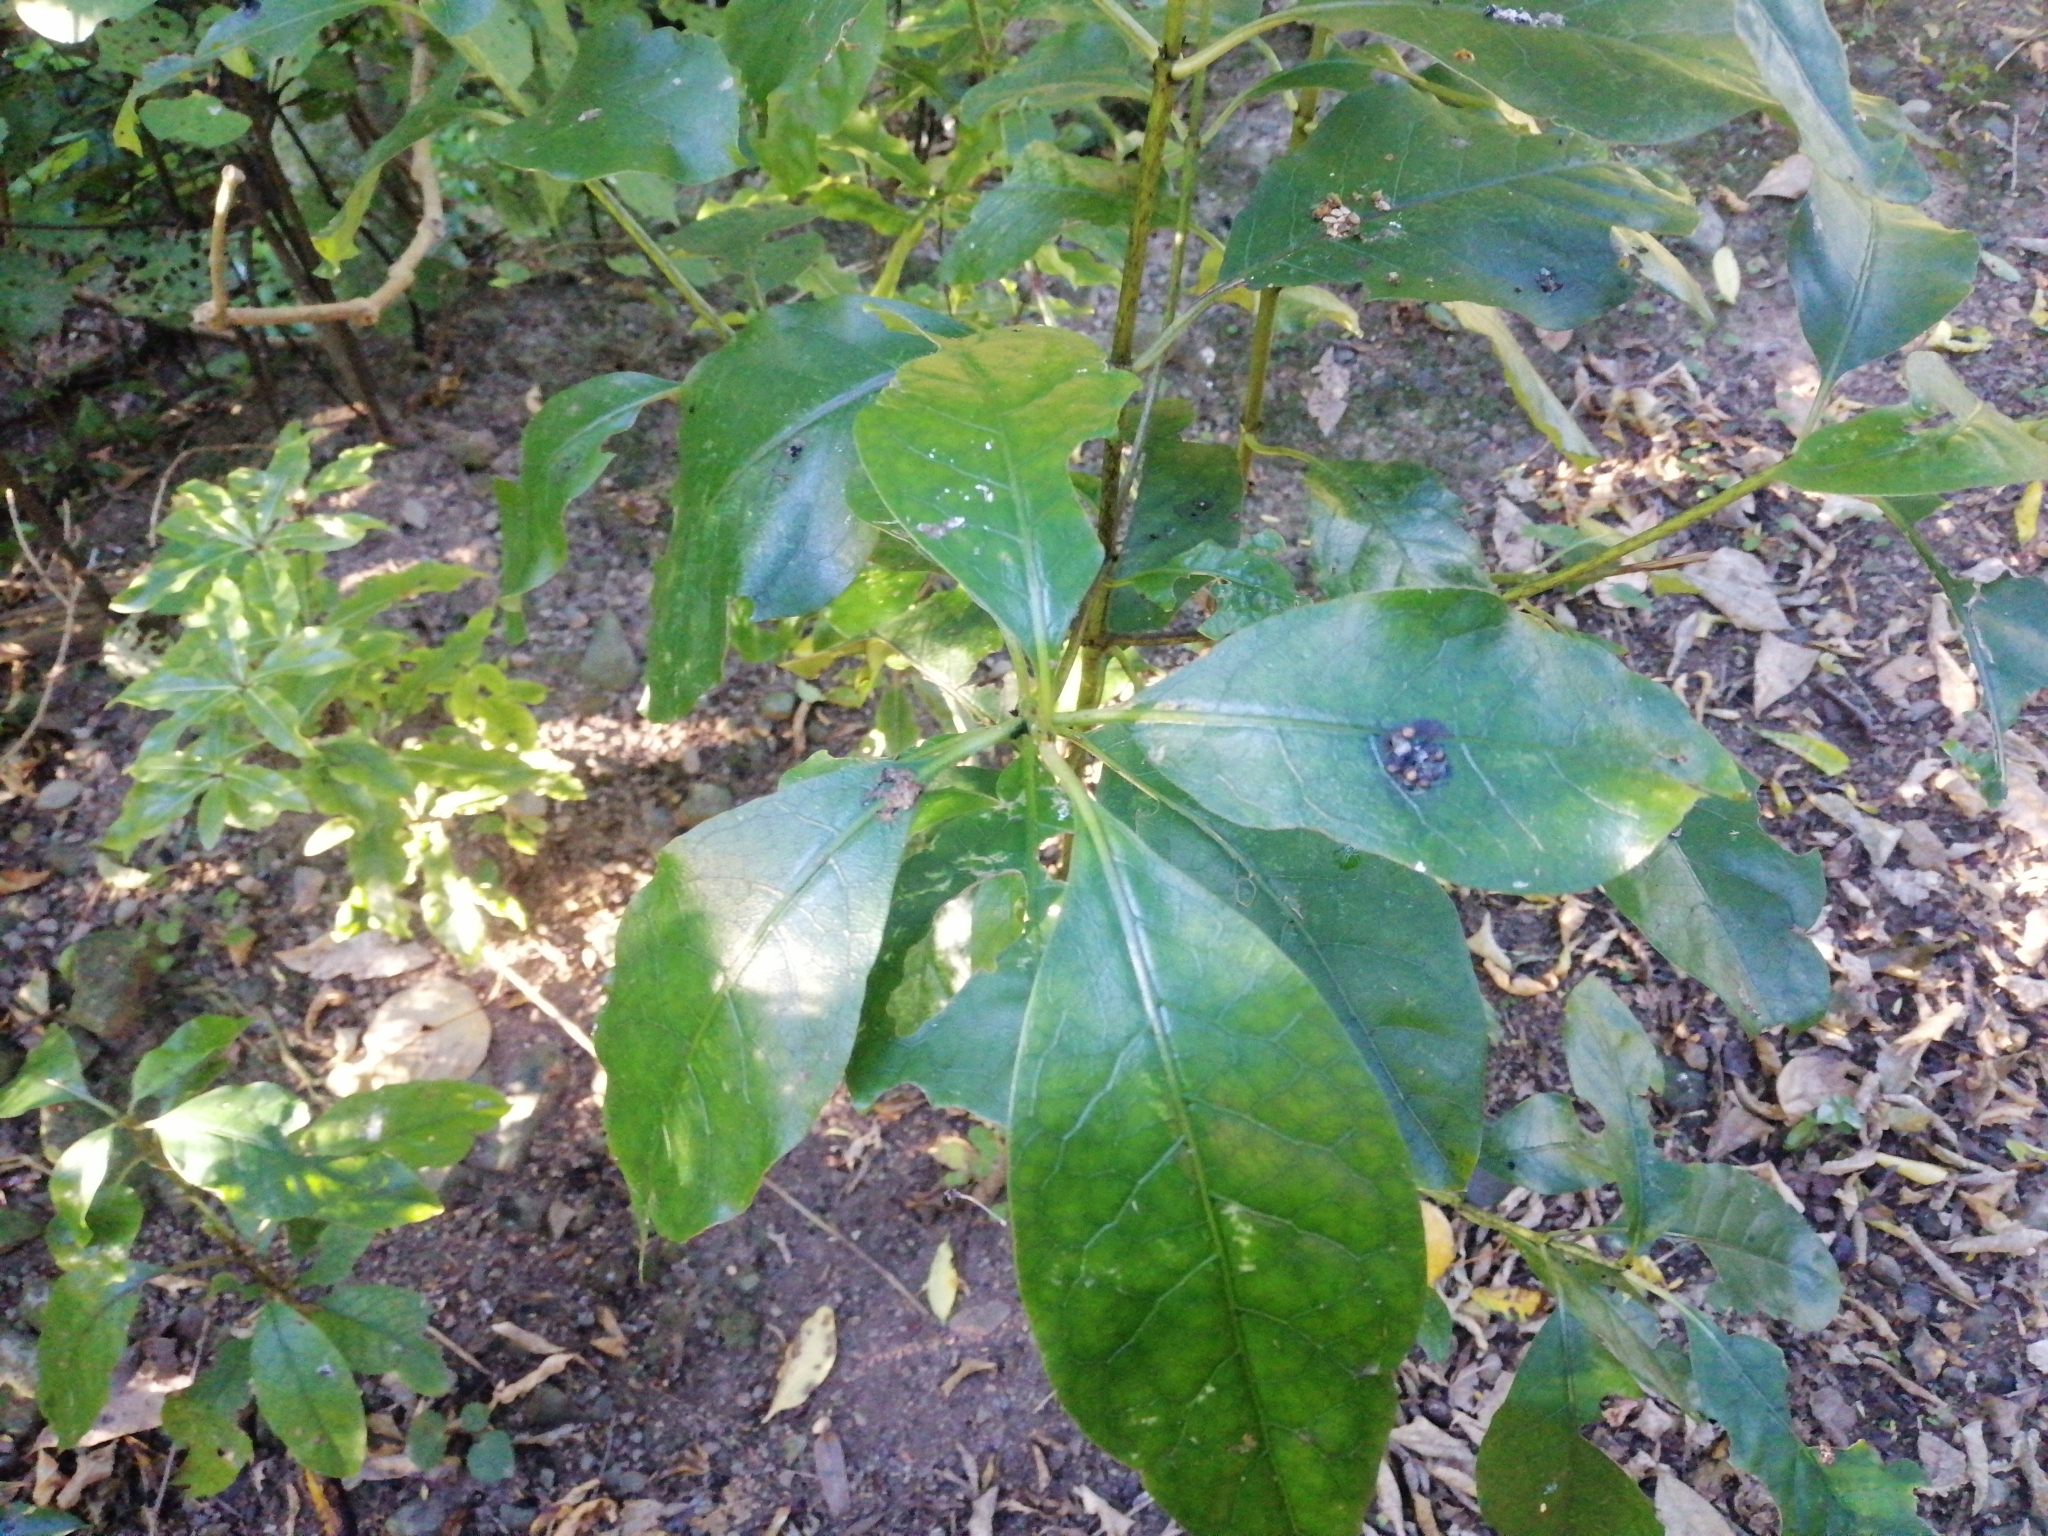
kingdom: Plantae
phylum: Tracheophyta
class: Magnoliopsida
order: Gentianales
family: Rubiaceae
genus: Coprosma
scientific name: Coprosma autumnalis
